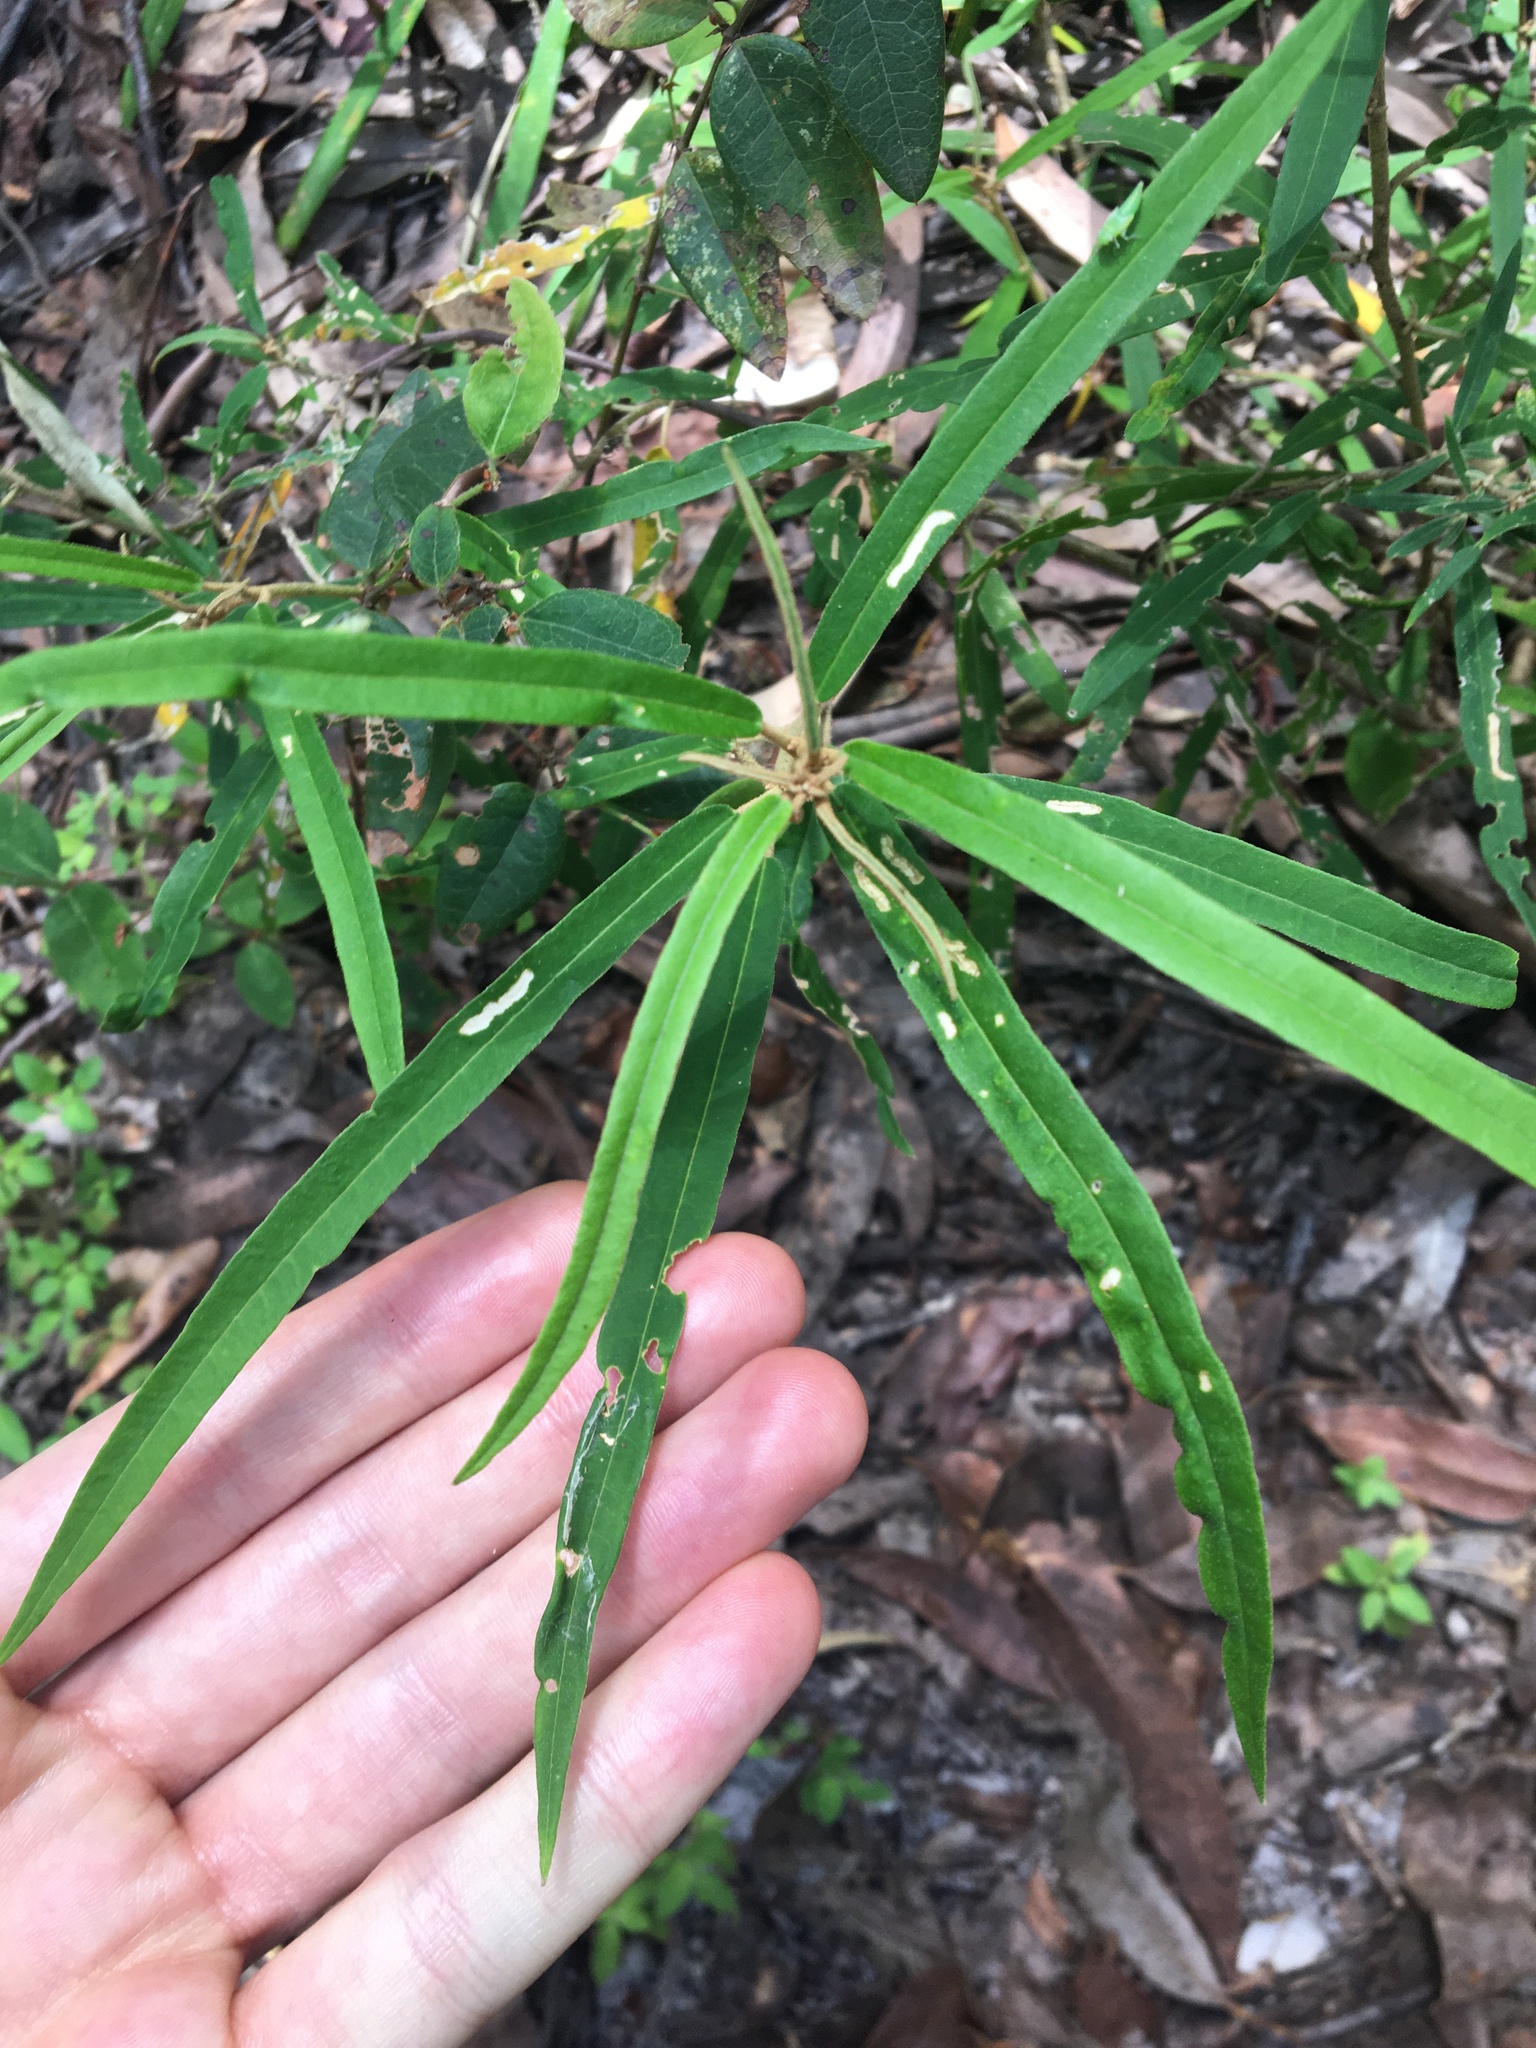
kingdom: Plantae
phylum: Tracheophyta
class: Magnoliopsida
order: Apiales
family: Araliaceae
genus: Astrotricha
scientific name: Astrotricha longifolia
